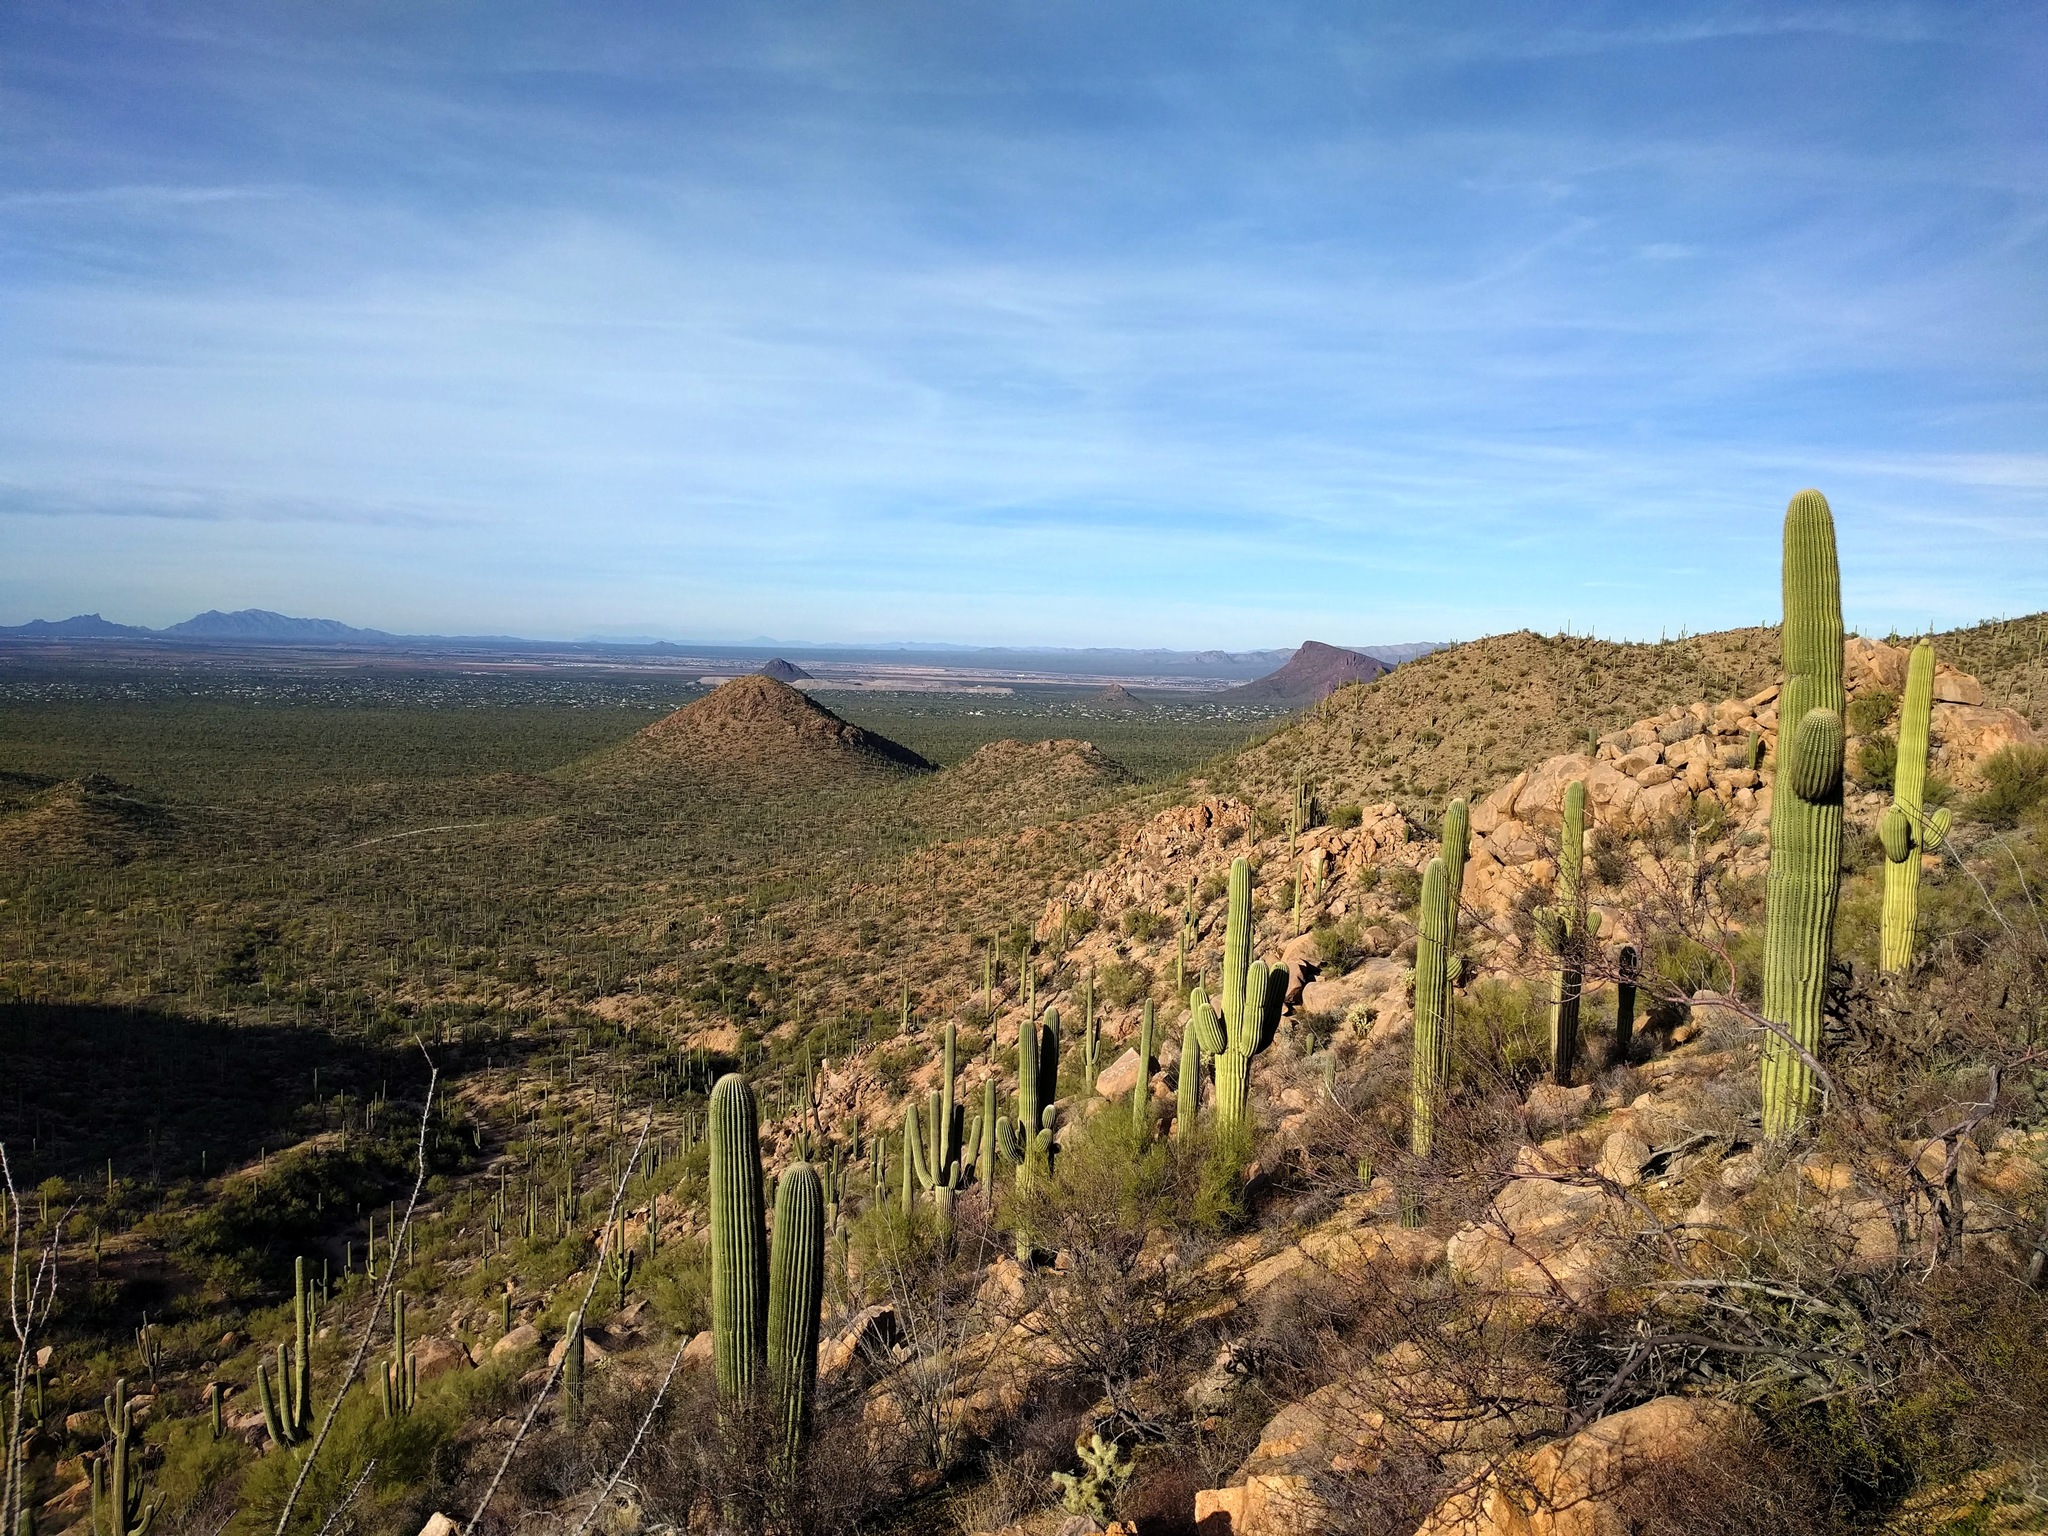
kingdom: Plantae
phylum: Tracheophyta
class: Magnoliopsida
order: Caryophyllales
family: Cactaceae
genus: Carnegiea
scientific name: Carnegiea gigantea
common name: Saguaro
